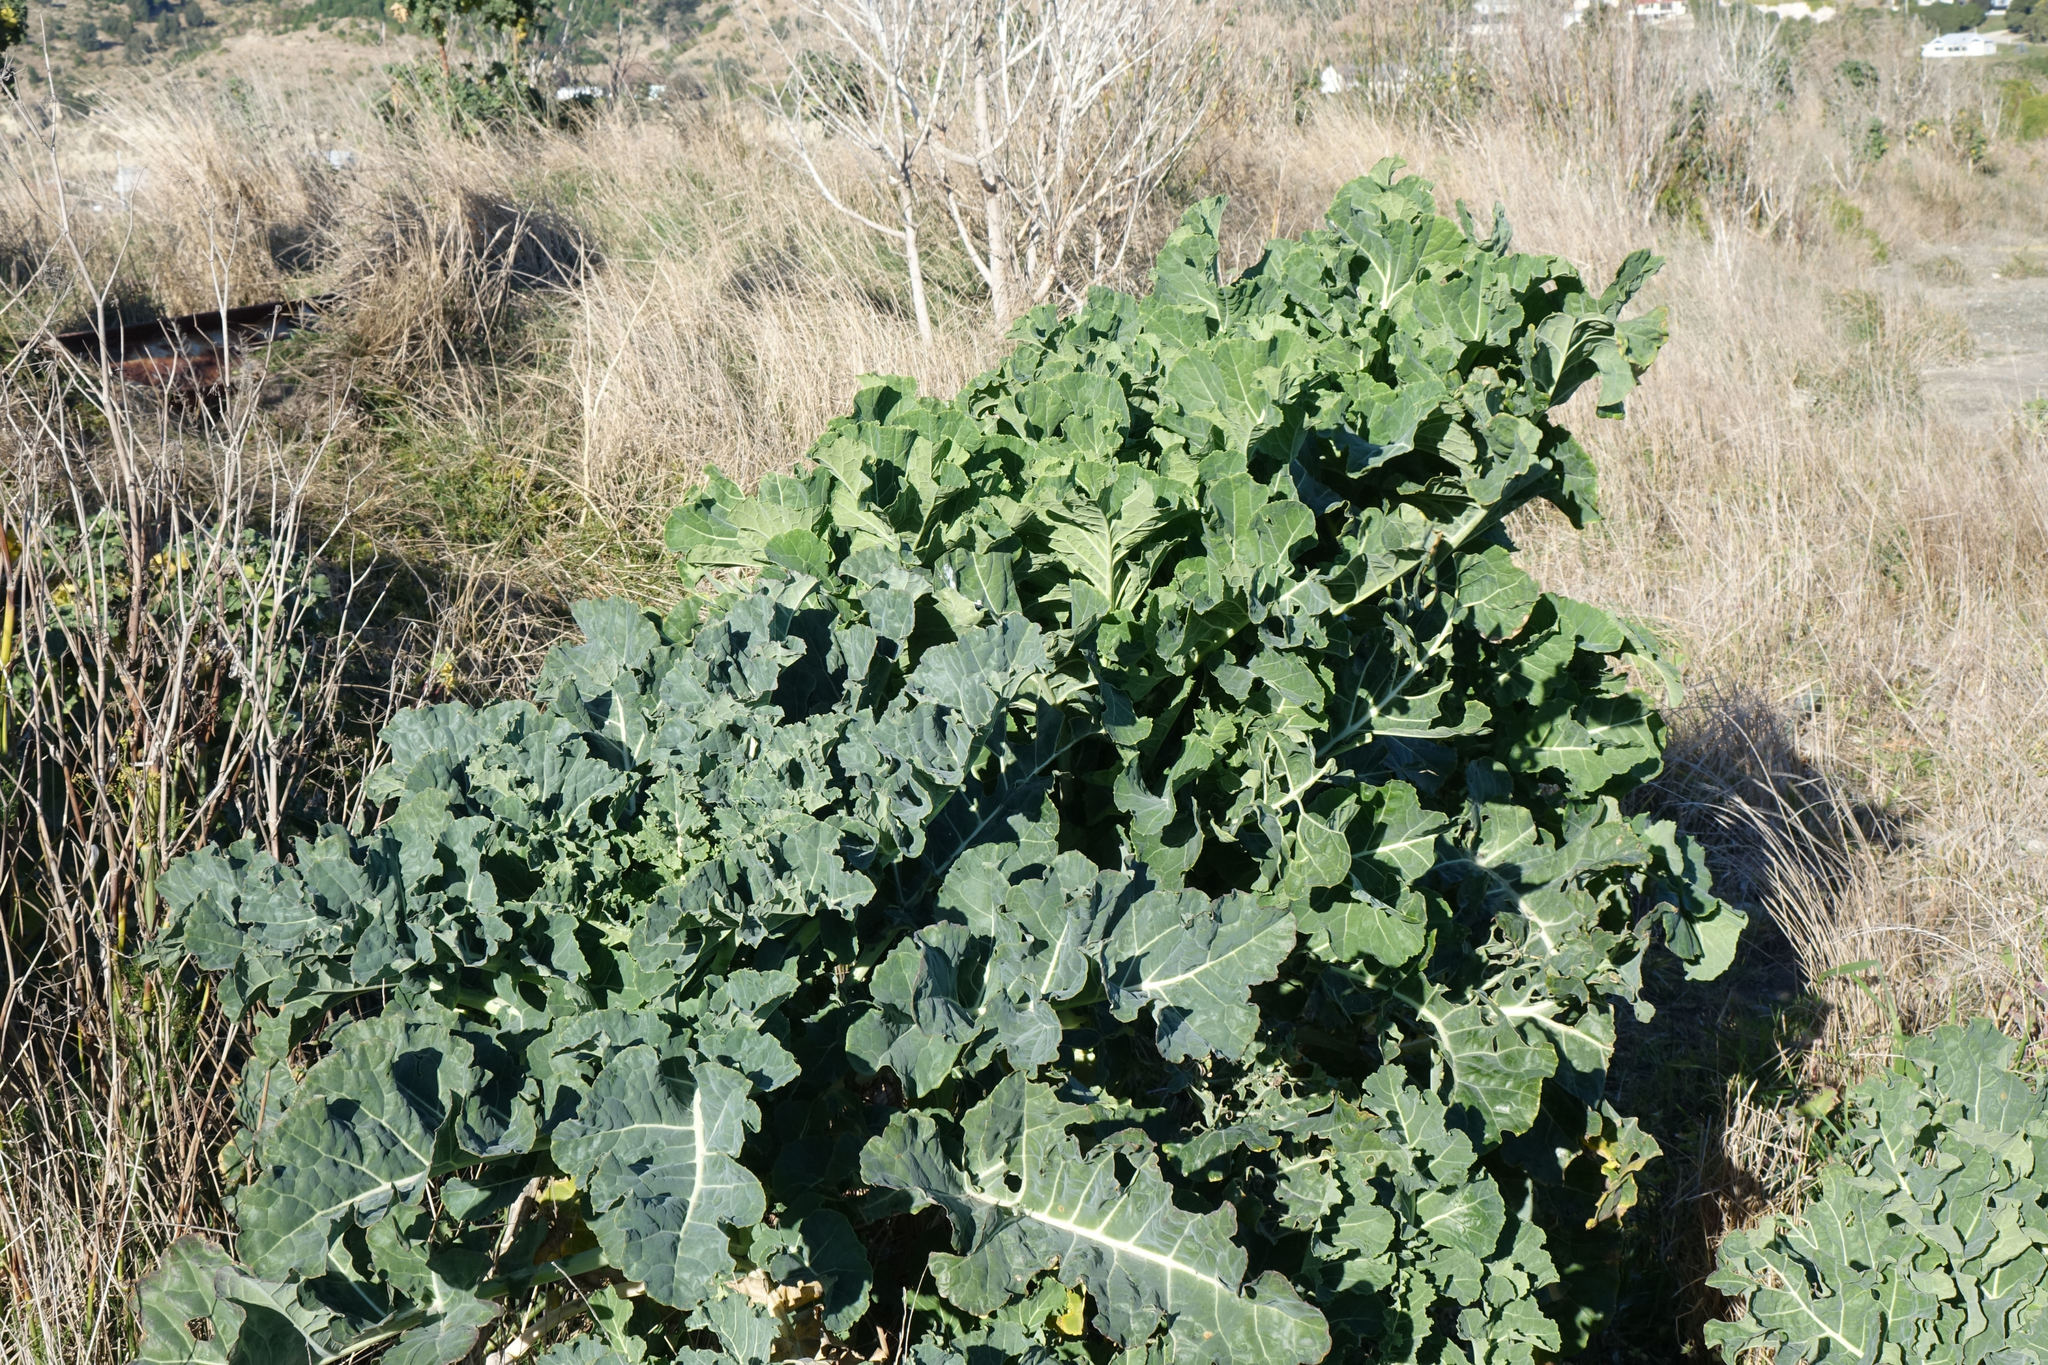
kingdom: Plantae
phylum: Tracheophyta
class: Magnoliopsida
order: Brassicales
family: Brassicaceae
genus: Brassica
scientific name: Brassica oleracea
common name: Cabbage
